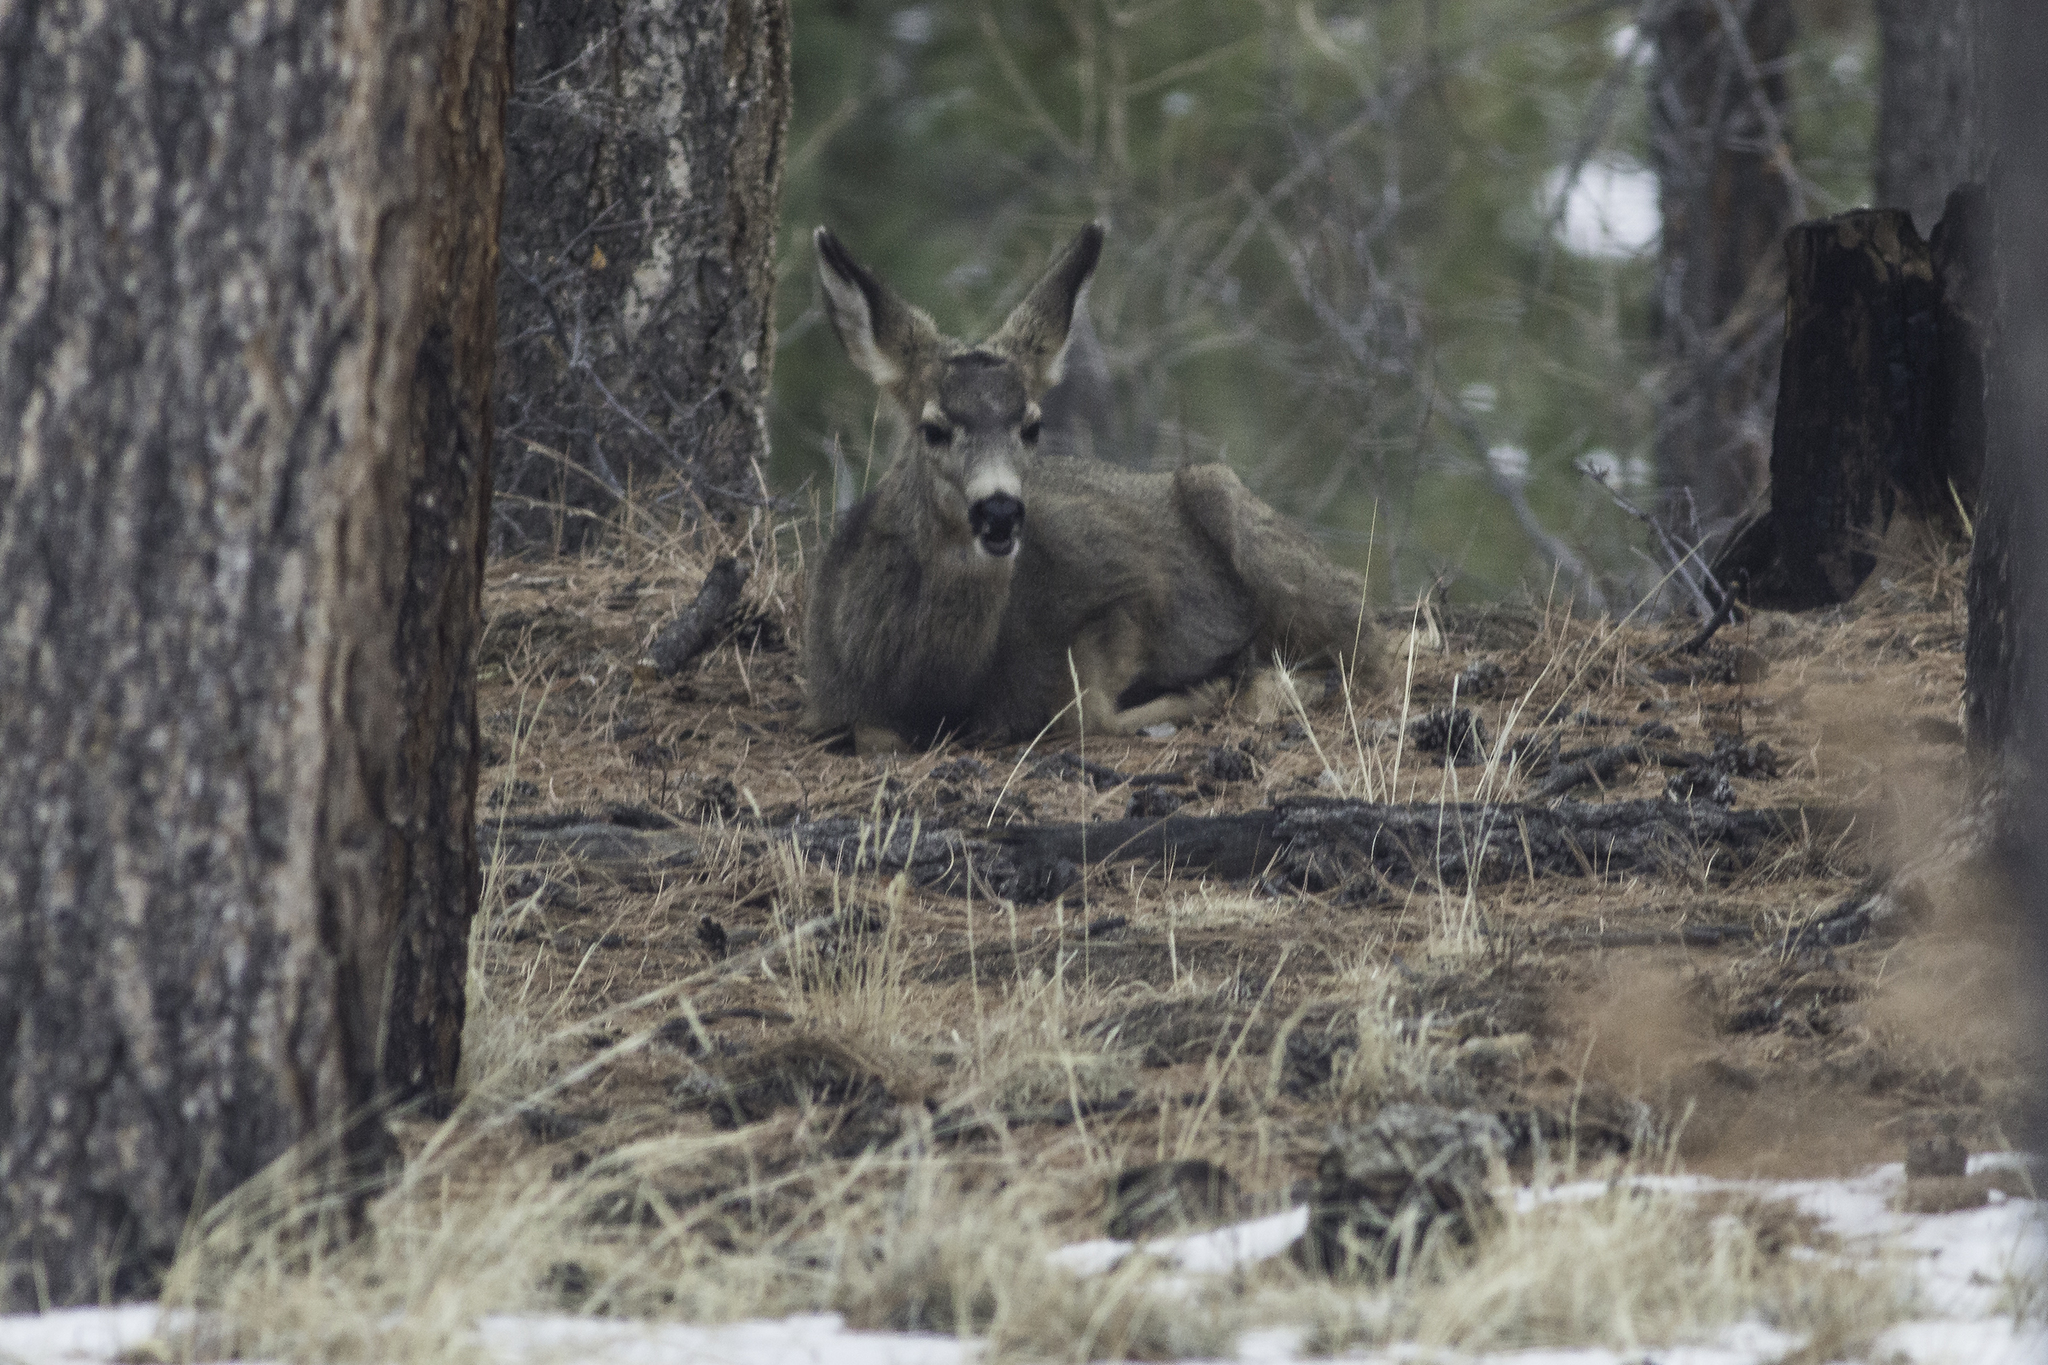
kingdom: Animalia
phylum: Chordata
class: Mammalia
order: Artiodactyla
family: Cervidae
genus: Odocoileus
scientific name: Odocoileus hemionus
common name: Mule deer
